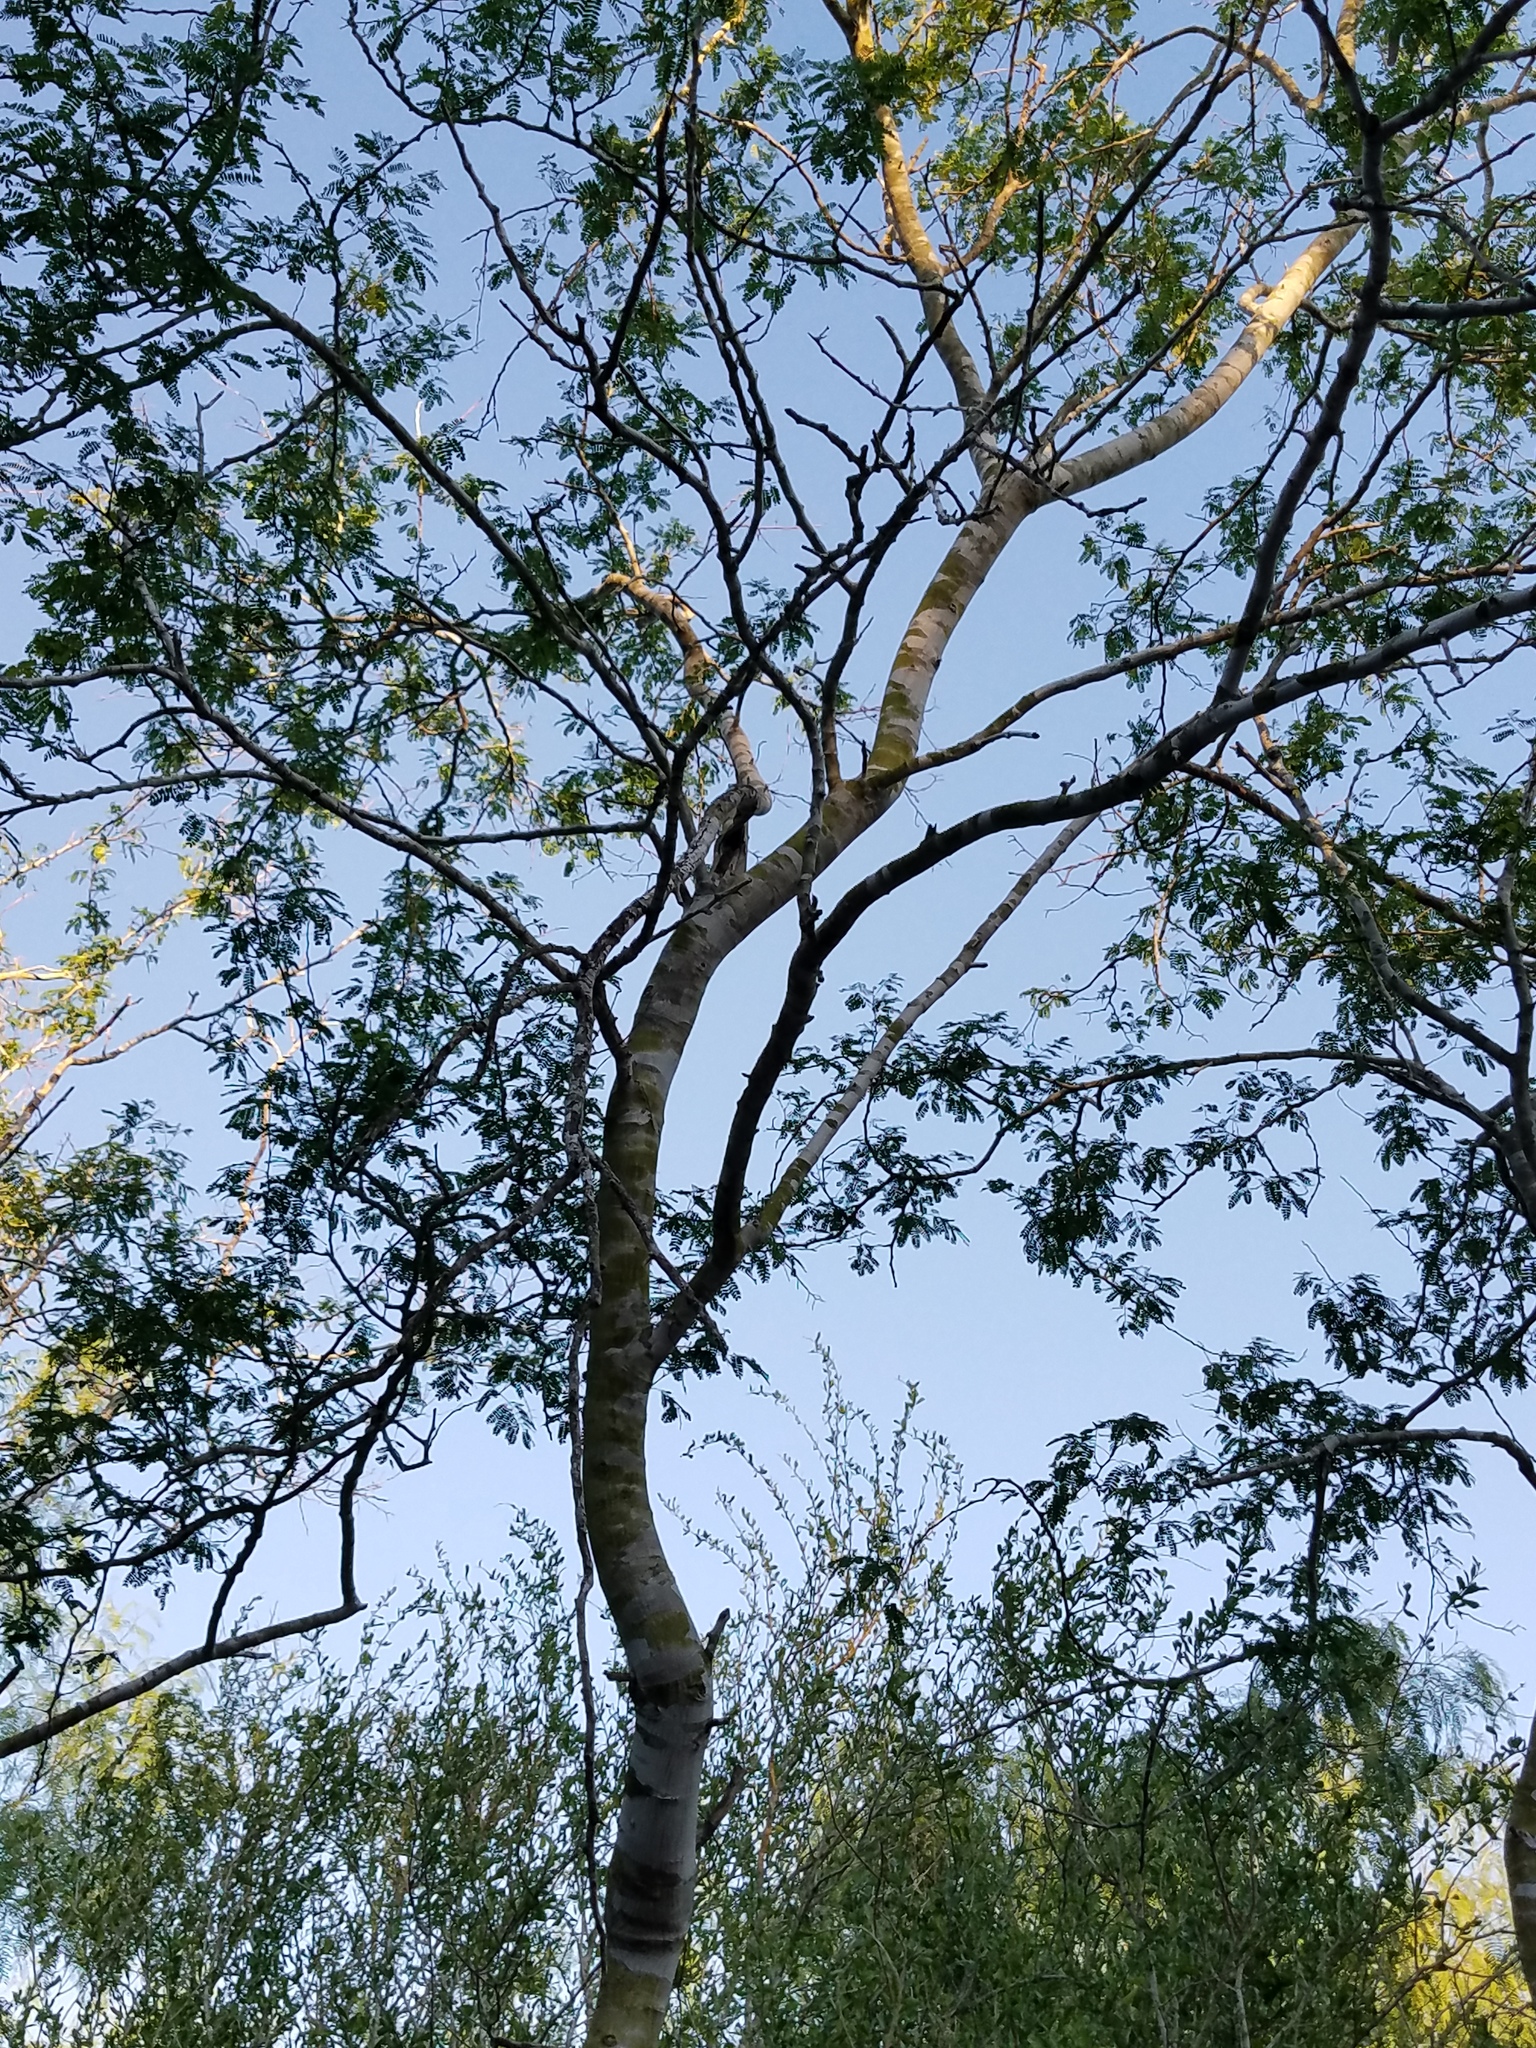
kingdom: Plantae
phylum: Tracheophyta
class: Magnoliopsida
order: Fabales
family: Fabaceae
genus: Havardia
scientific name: Havardia pallens
